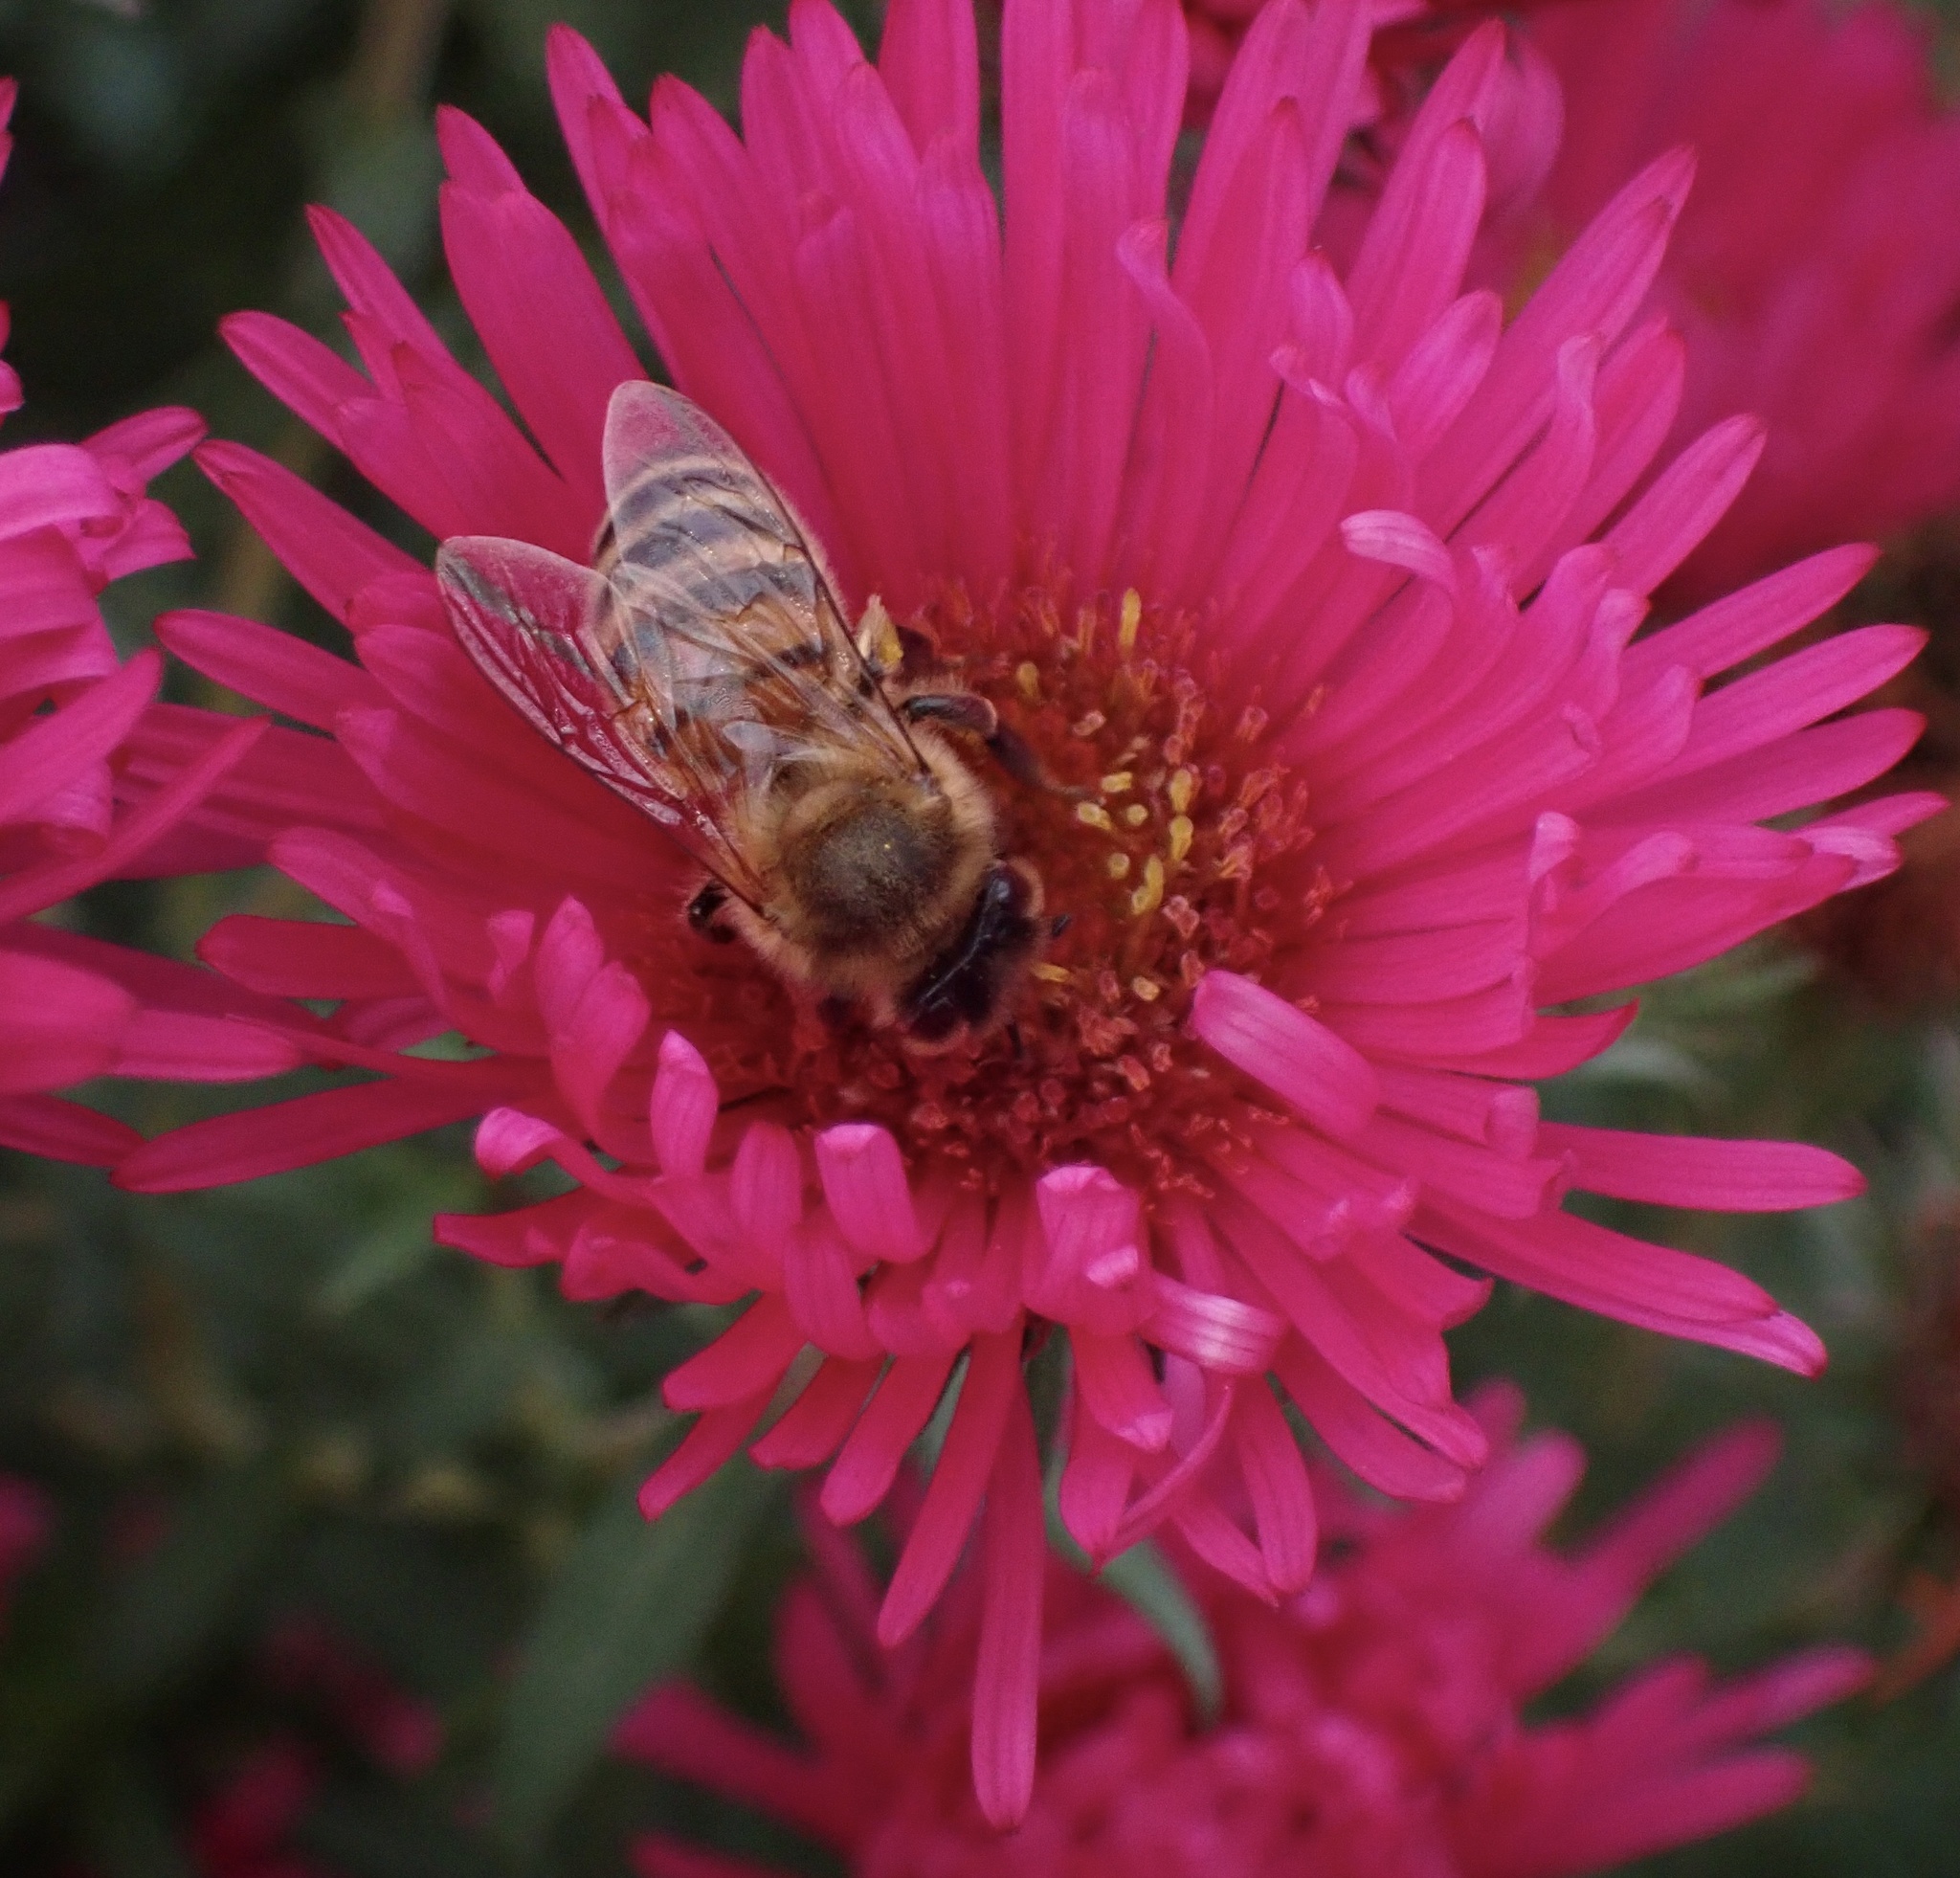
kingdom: Animalia
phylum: Arthropoda
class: Insecta
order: Hymenoptera
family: Apidae
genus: Apis
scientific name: Apis mellifera
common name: Honey bee
